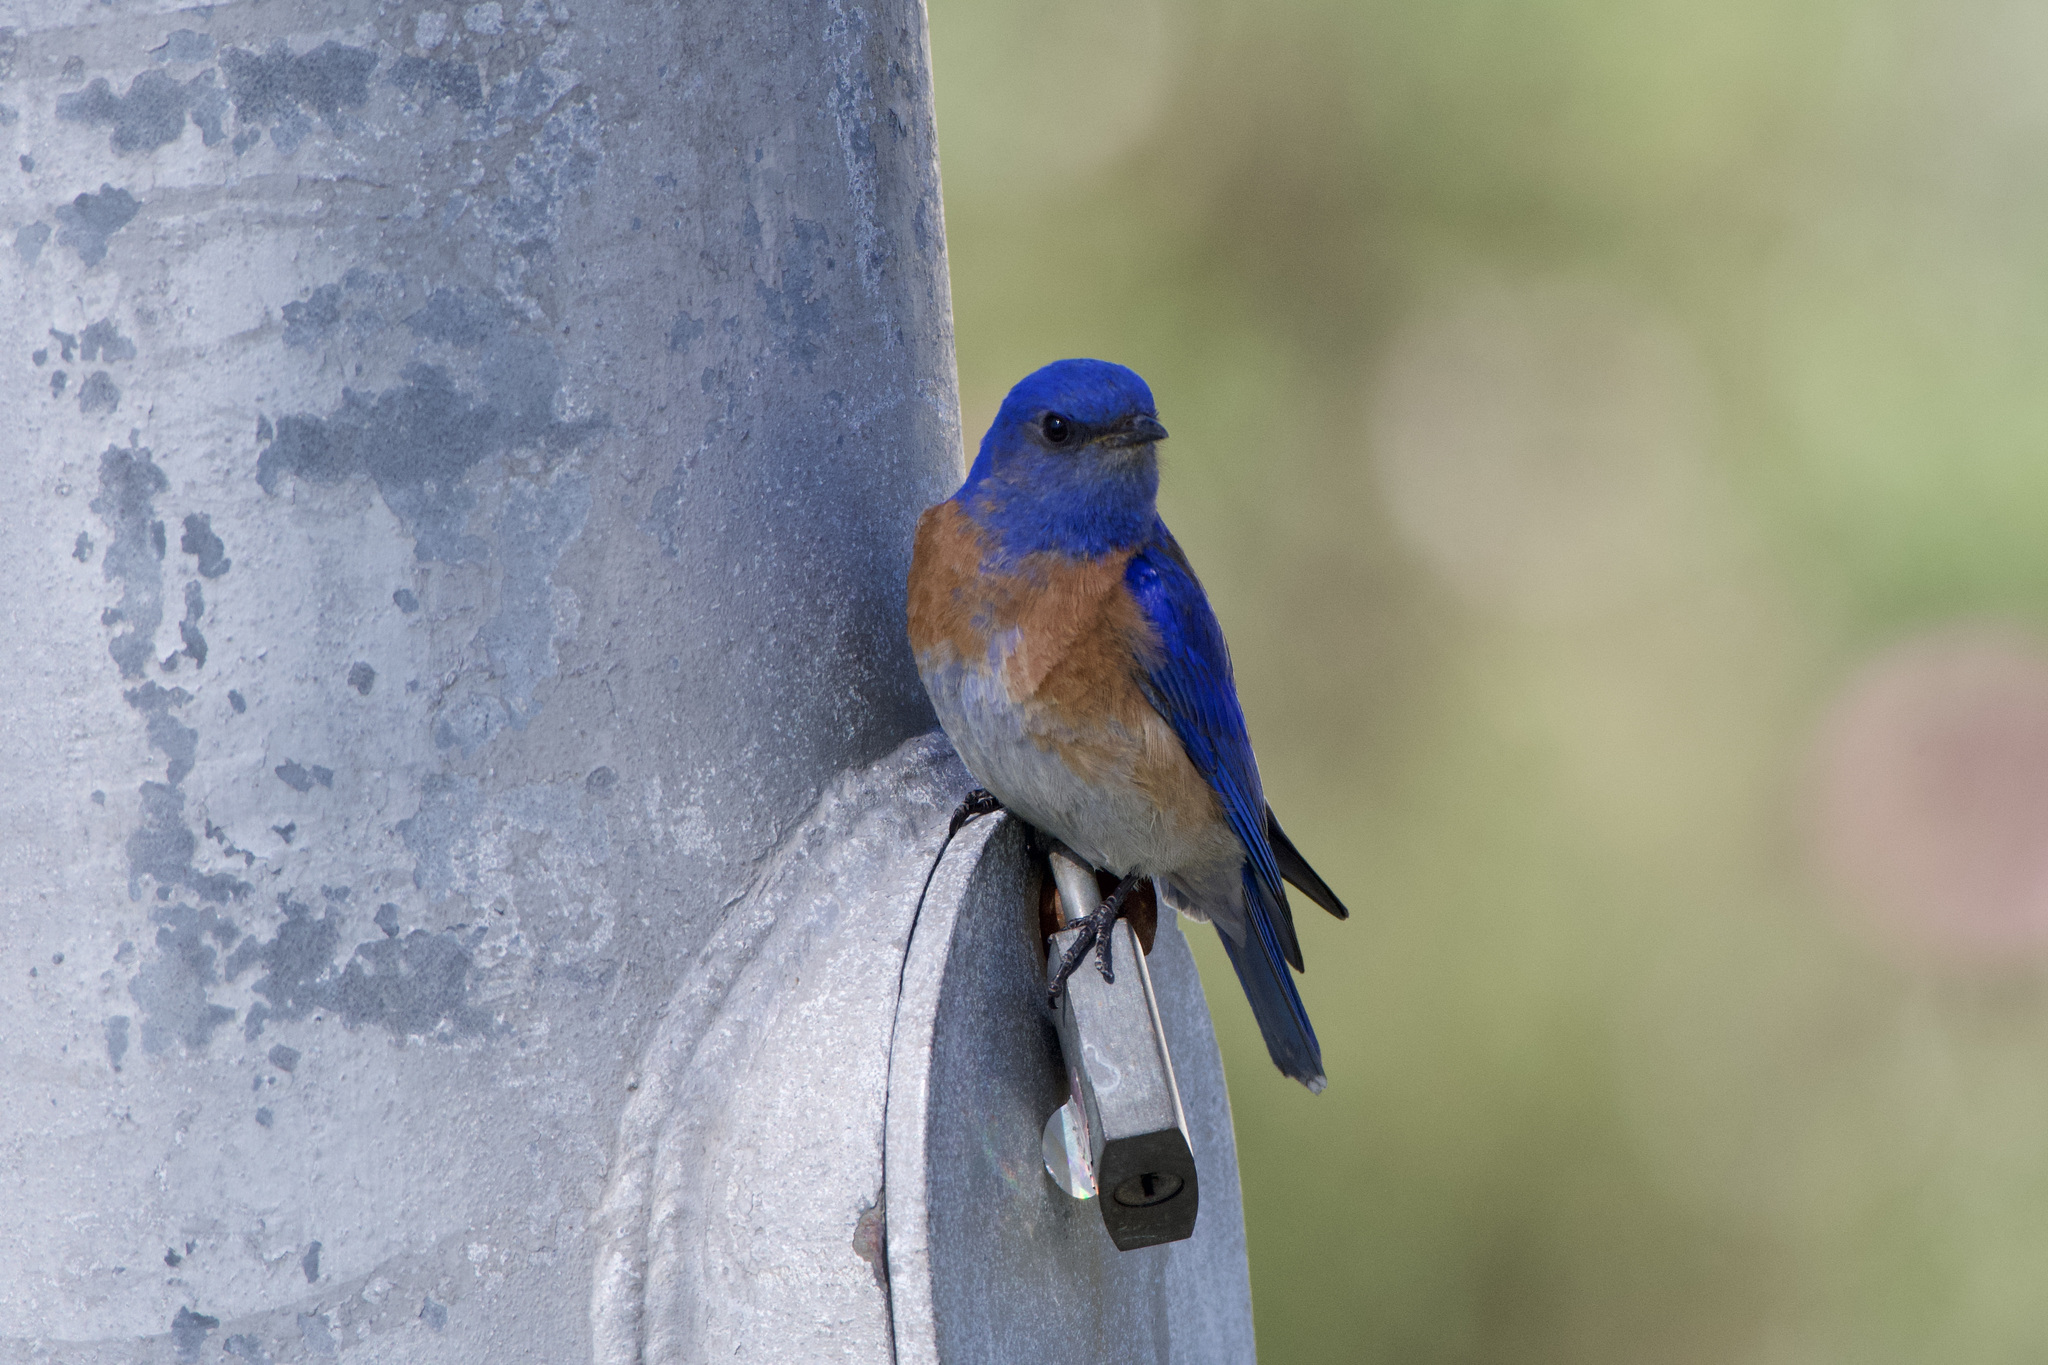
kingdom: Animalia
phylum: Chordata
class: Aves
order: Passeriformes
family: Turdidae
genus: Sialia
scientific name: Sialia mexicana
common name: Western bluebird
